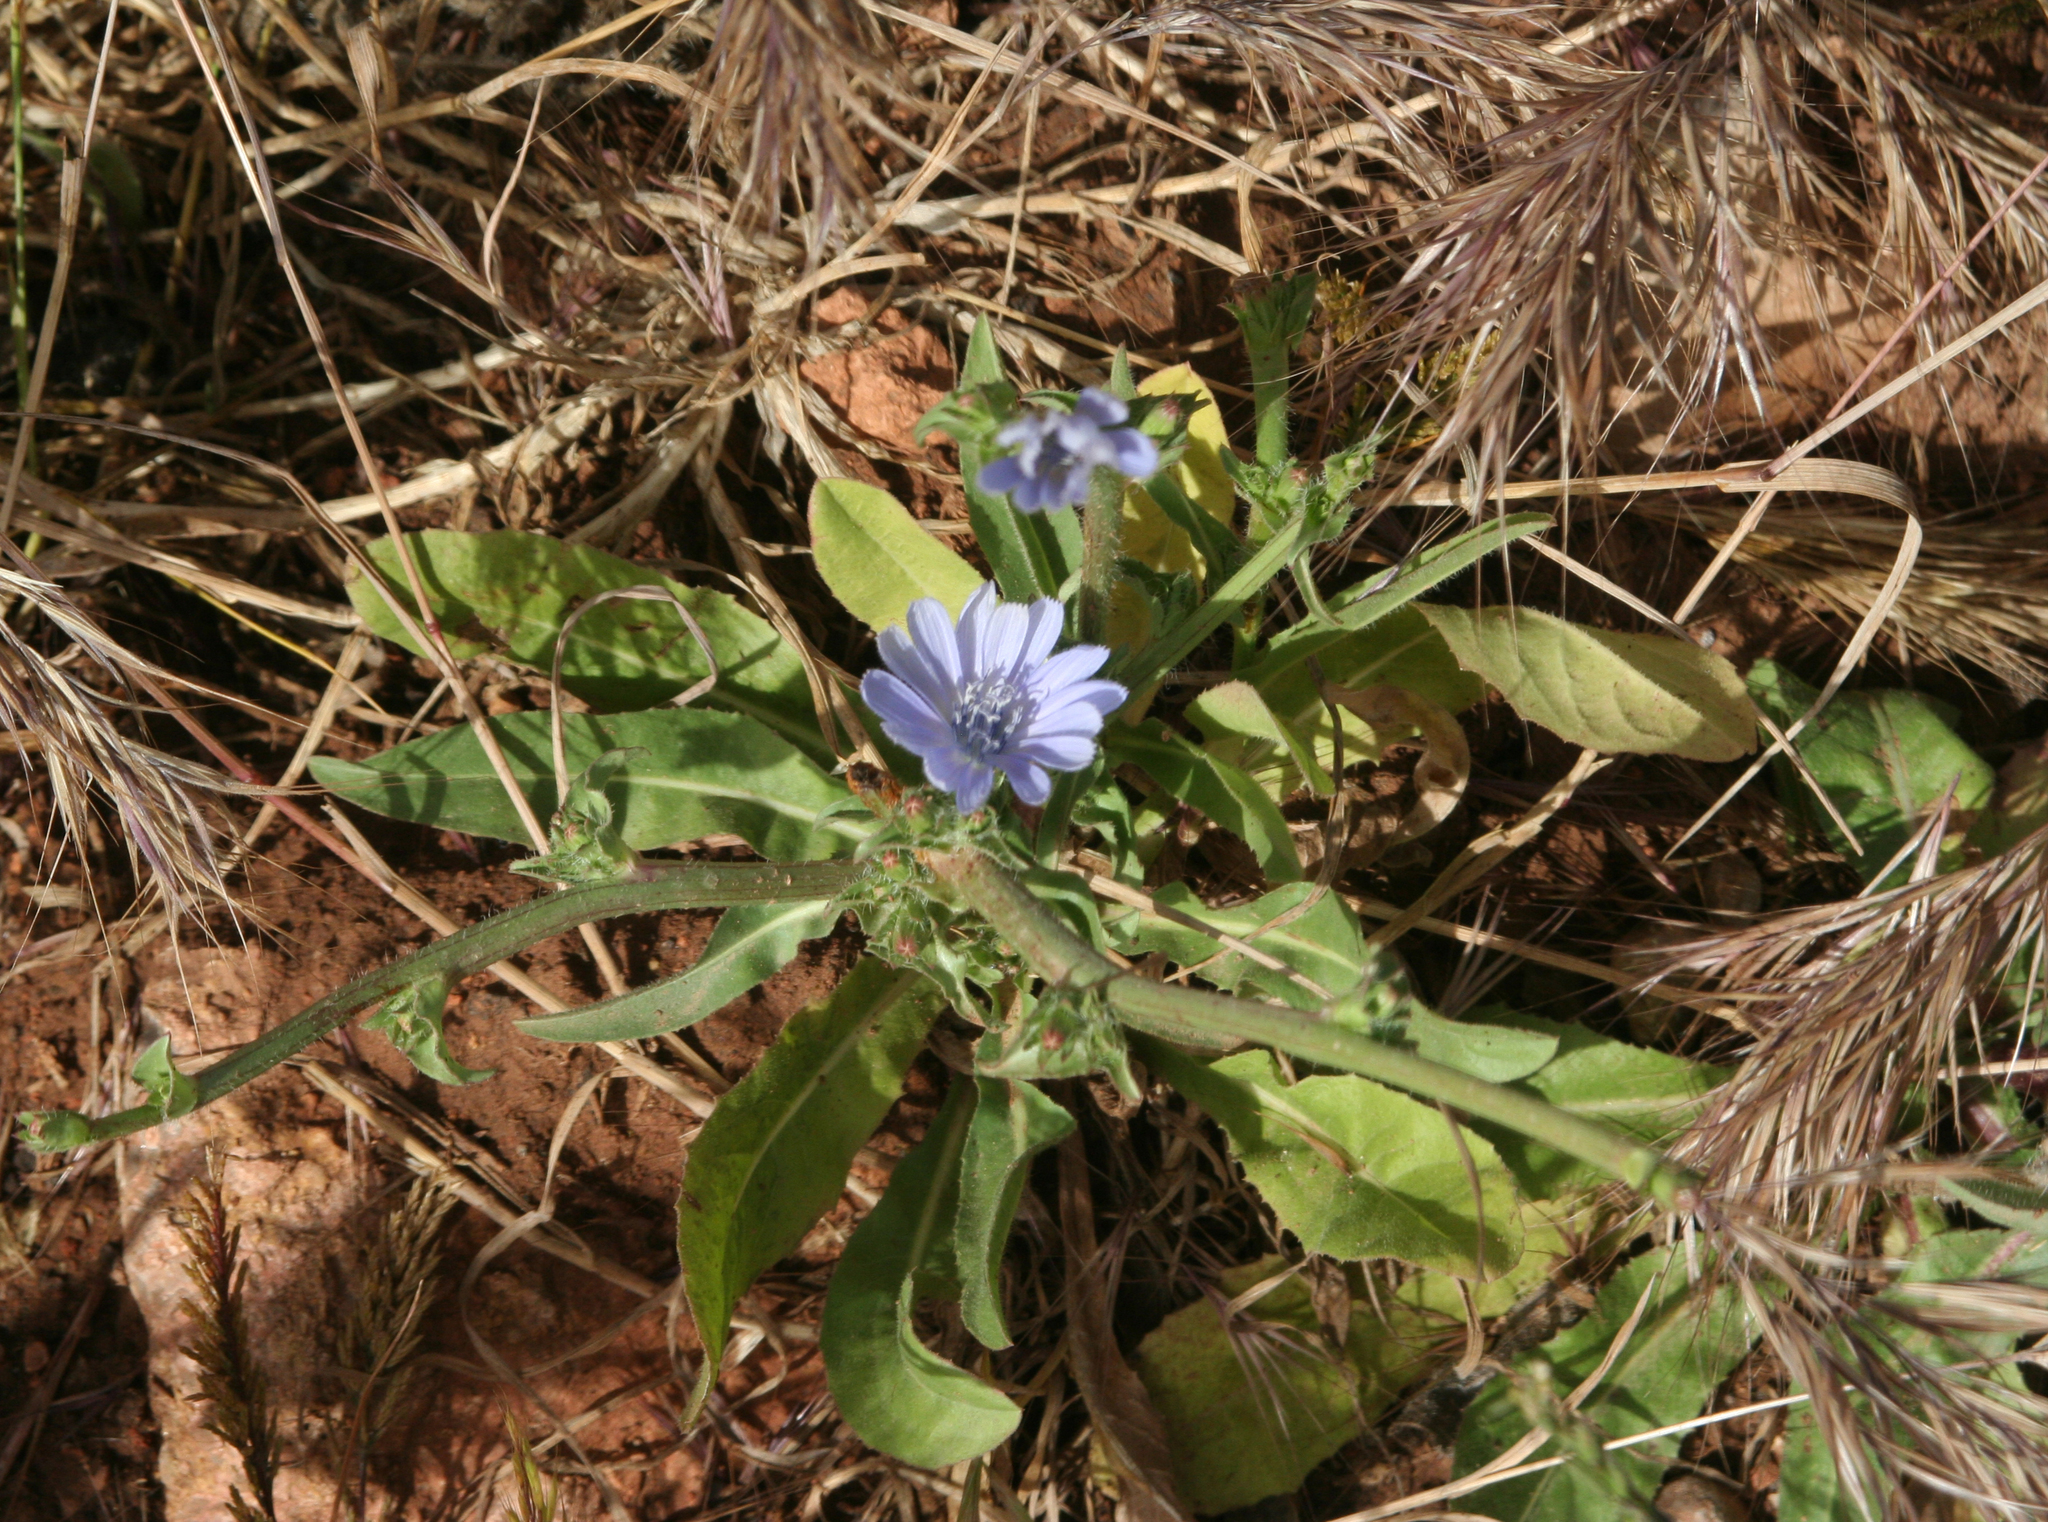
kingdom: Plantae
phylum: Tracheophyta
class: Magnoliopsida
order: Asterales
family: Asteraceae
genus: Cichorium
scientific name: Cichorium intybus
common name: Chicory
